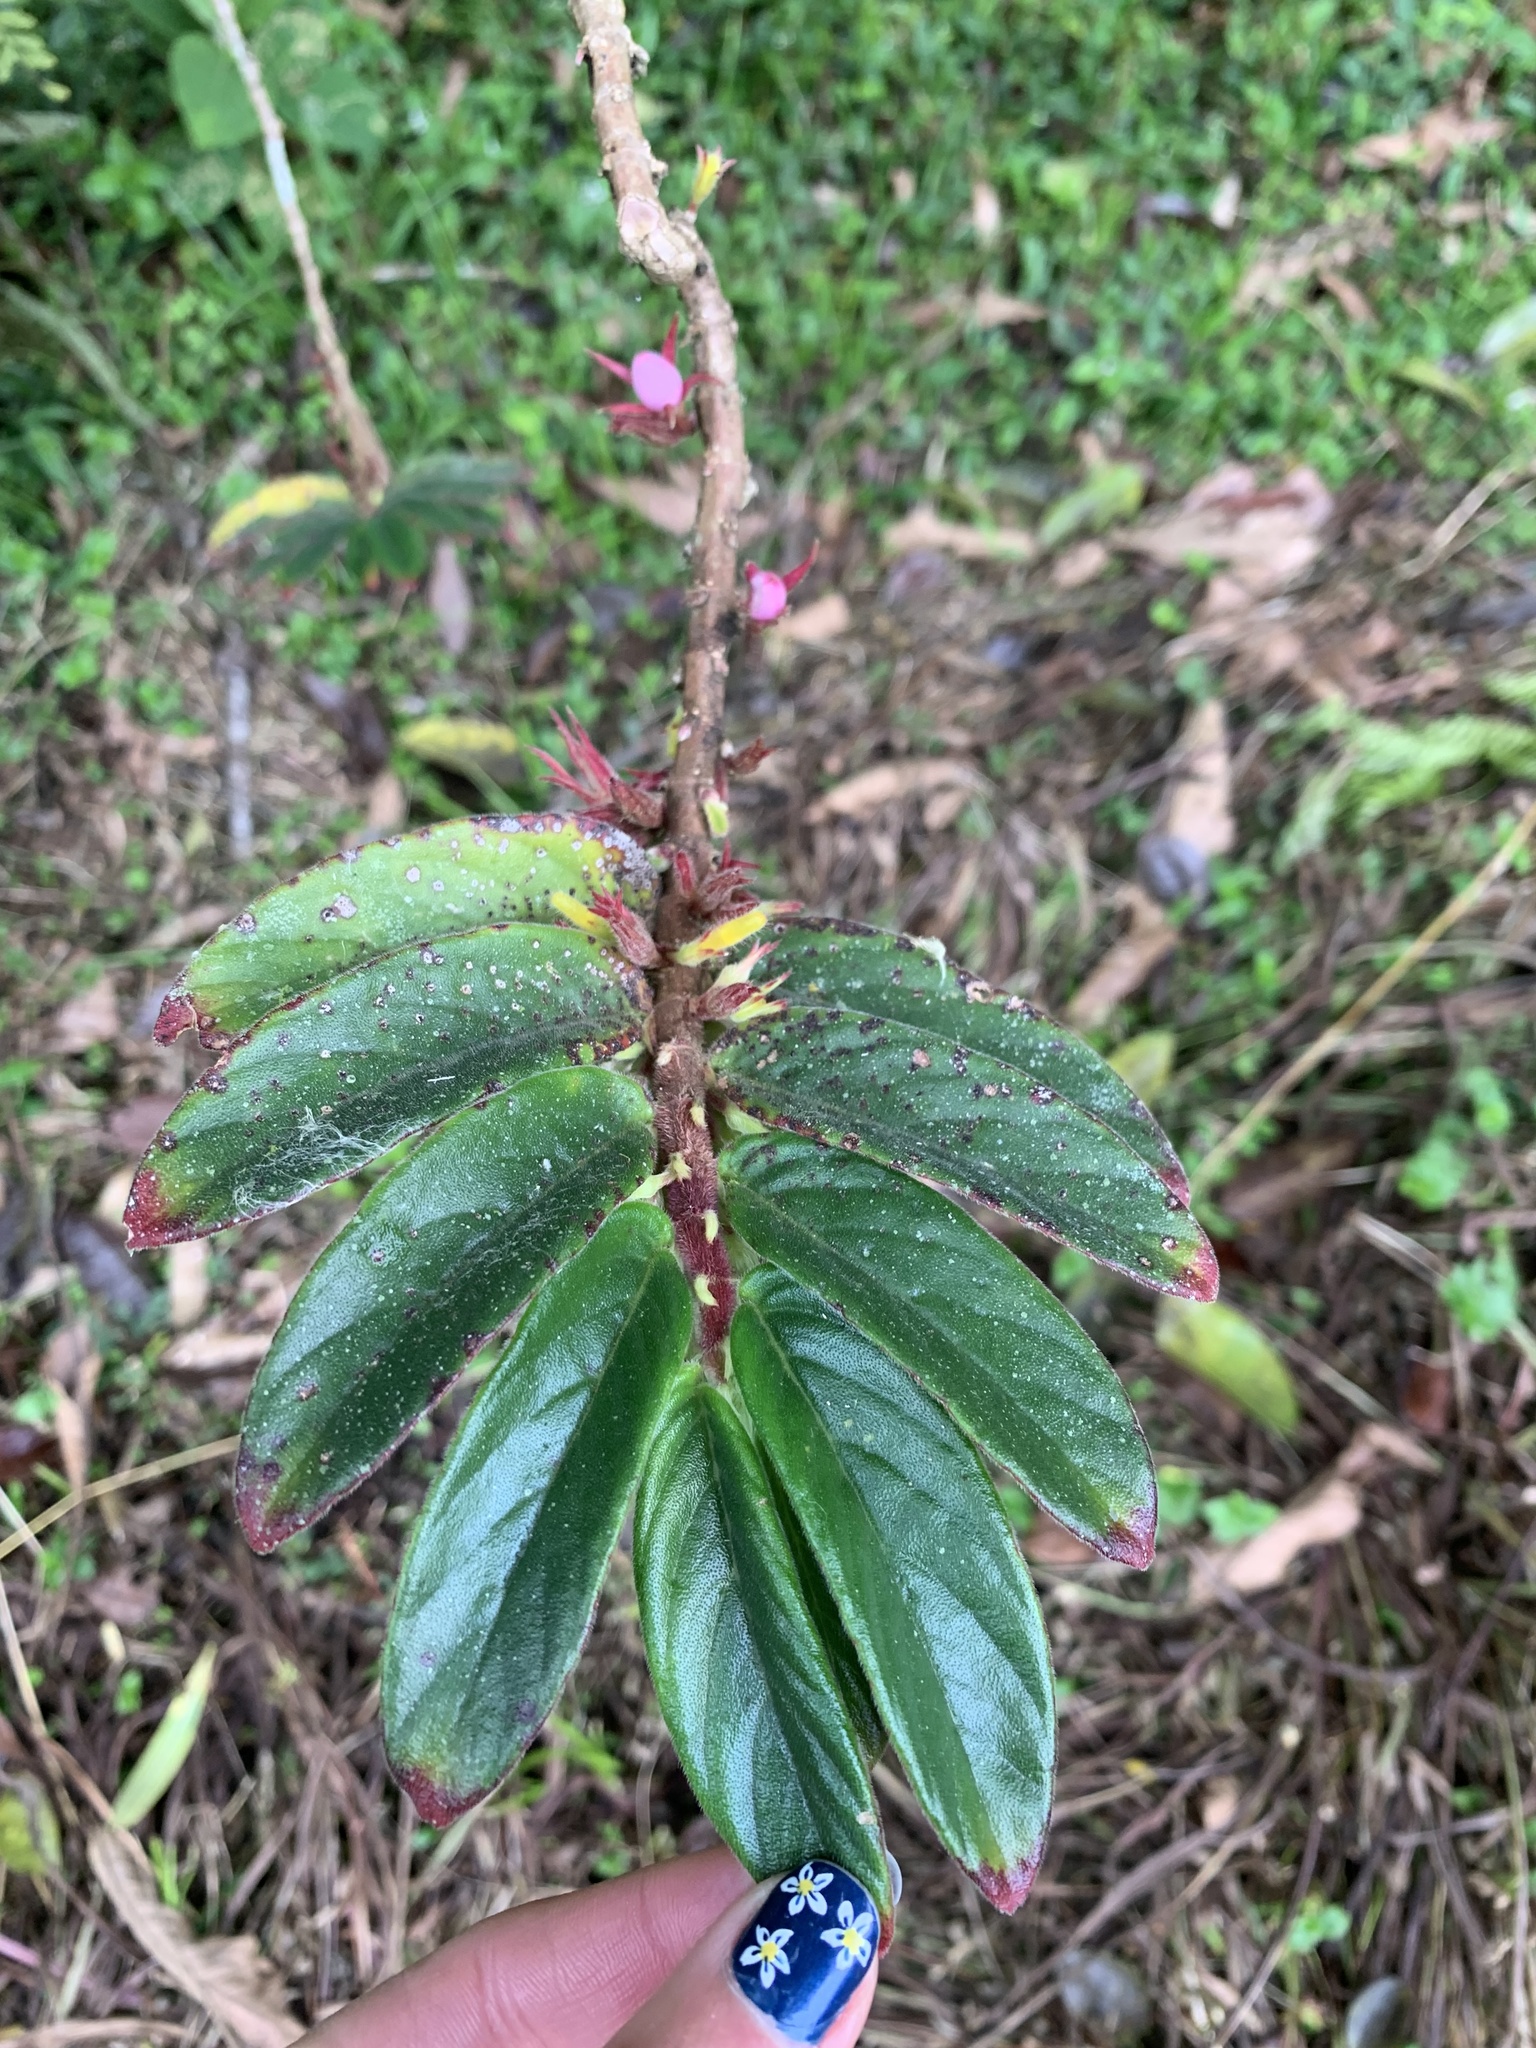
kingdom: Plantae
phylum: Tracheophyta
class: Magnoliopsida
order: Lamiales
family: Gesneriaceae
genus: Columnea
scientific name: Columnea orientandina
